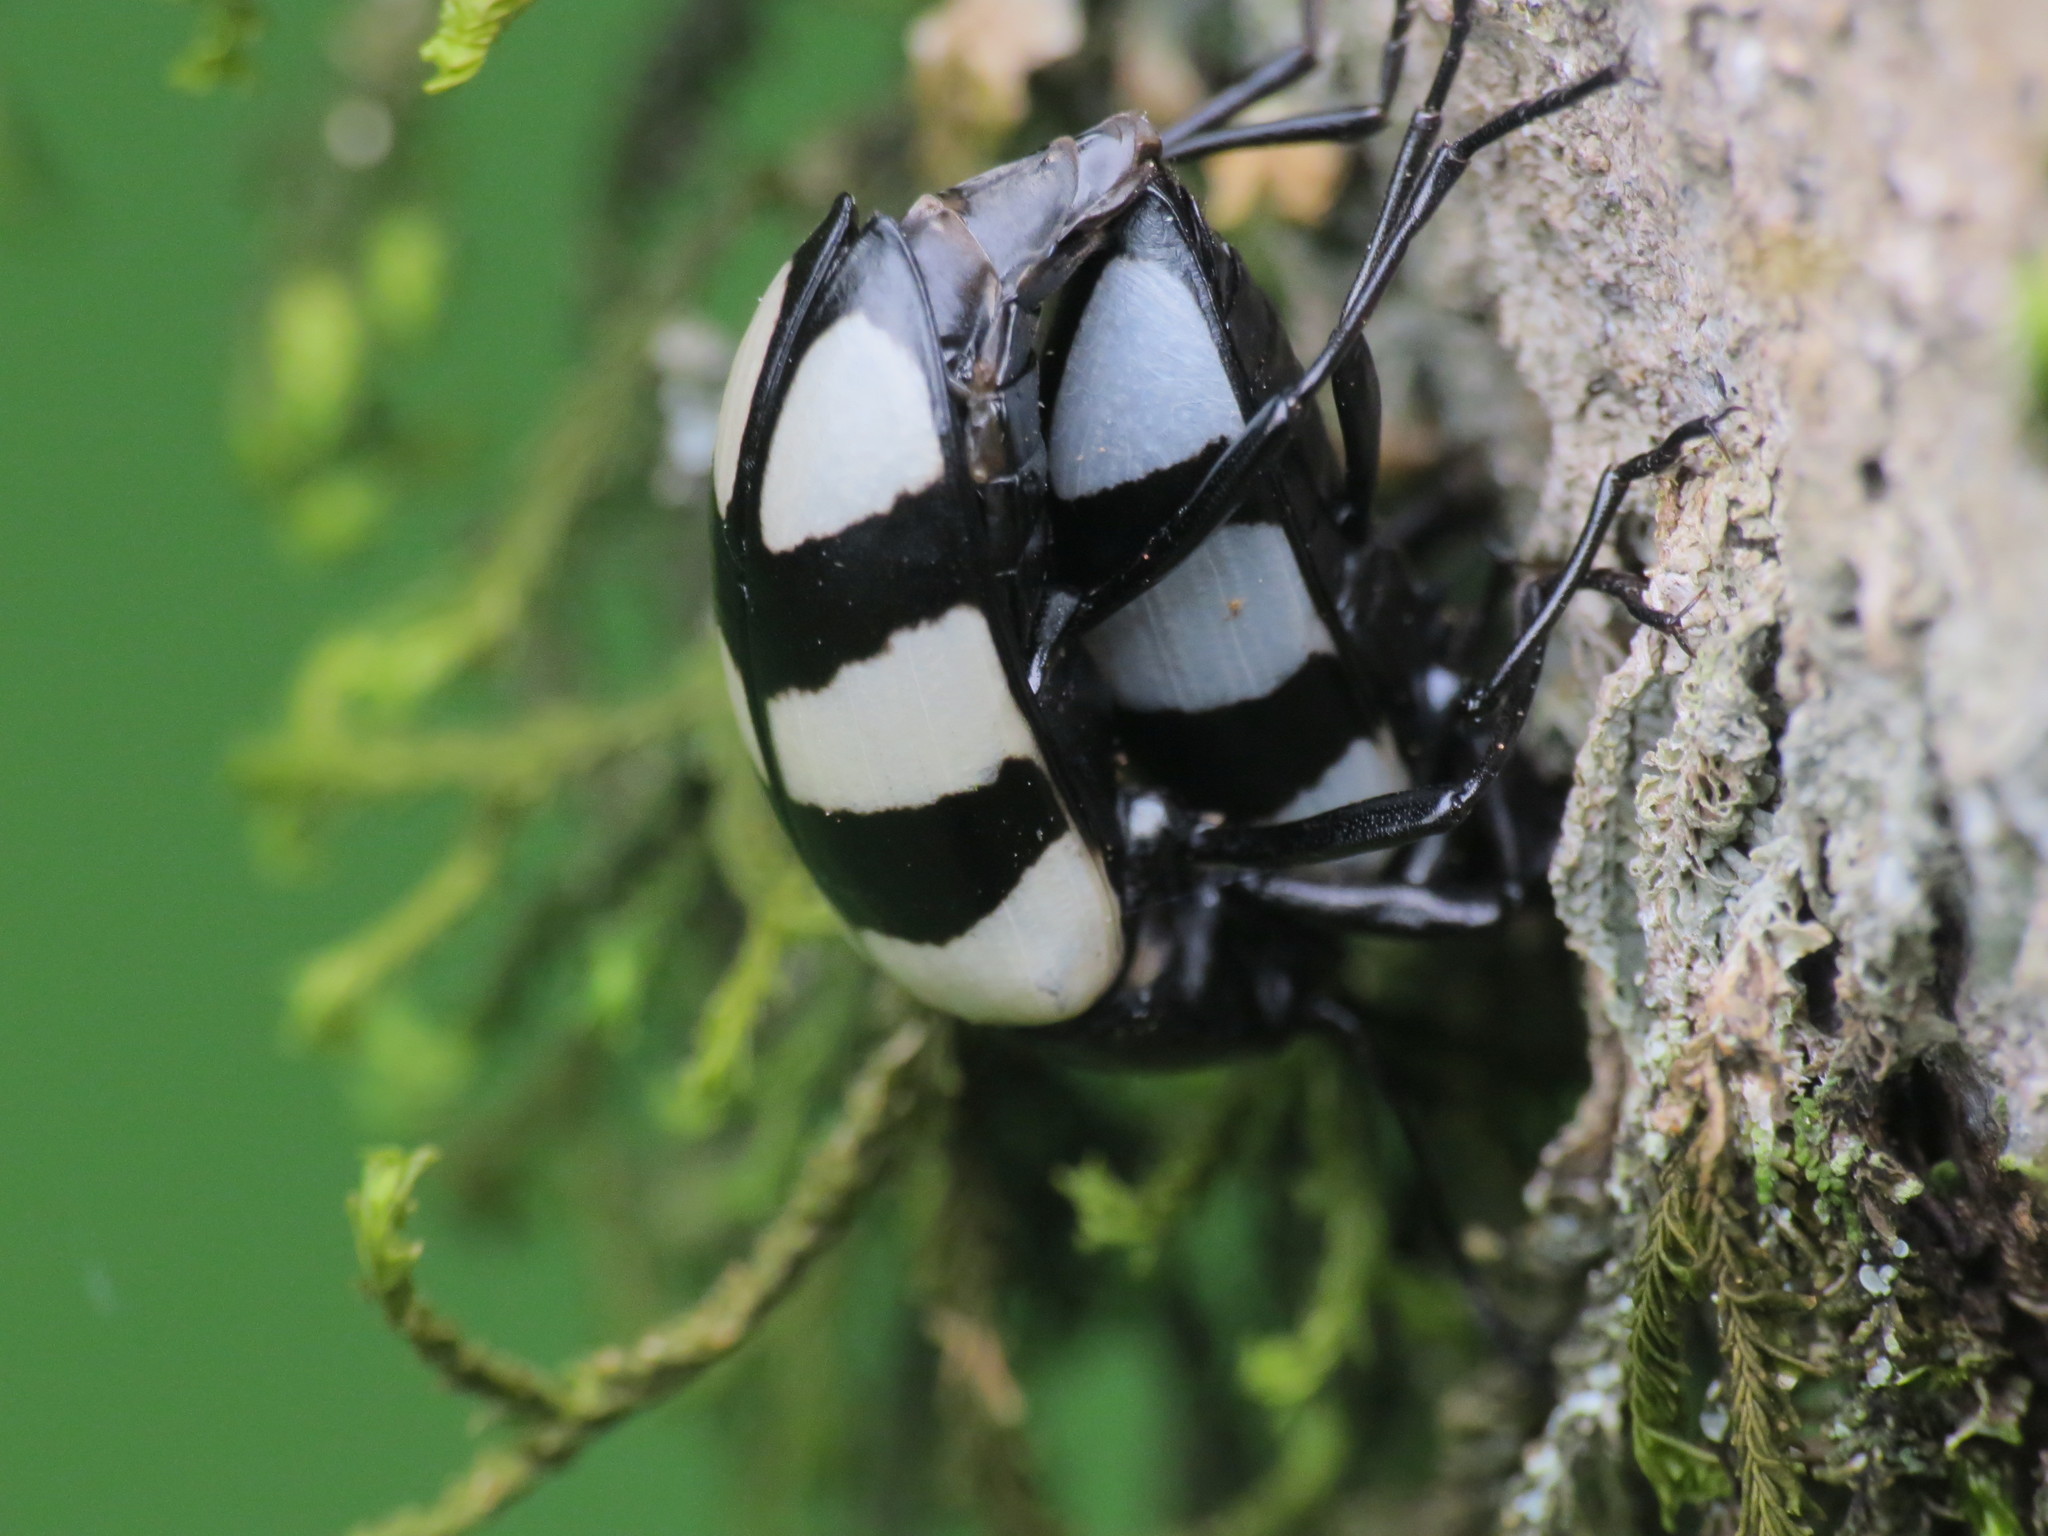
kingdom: Animalia
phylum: Arthropoda
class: Insecta
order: Coleoptera
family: Tenebrionidae
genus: Poecilesthus
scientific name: Poecilesthus
